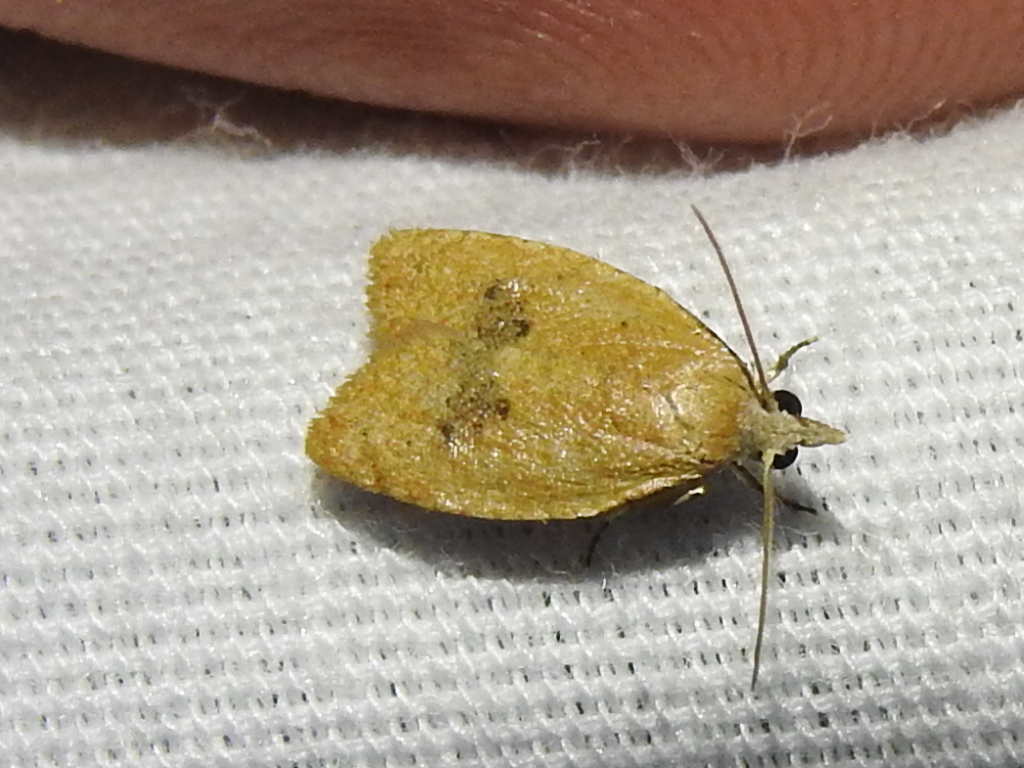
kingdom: Animalia
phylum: Arthropoda
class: Insecta
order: Lepidoptera
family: Tortricidae
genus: Sparganothoides
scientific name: Sparganothoides lentiginosana
